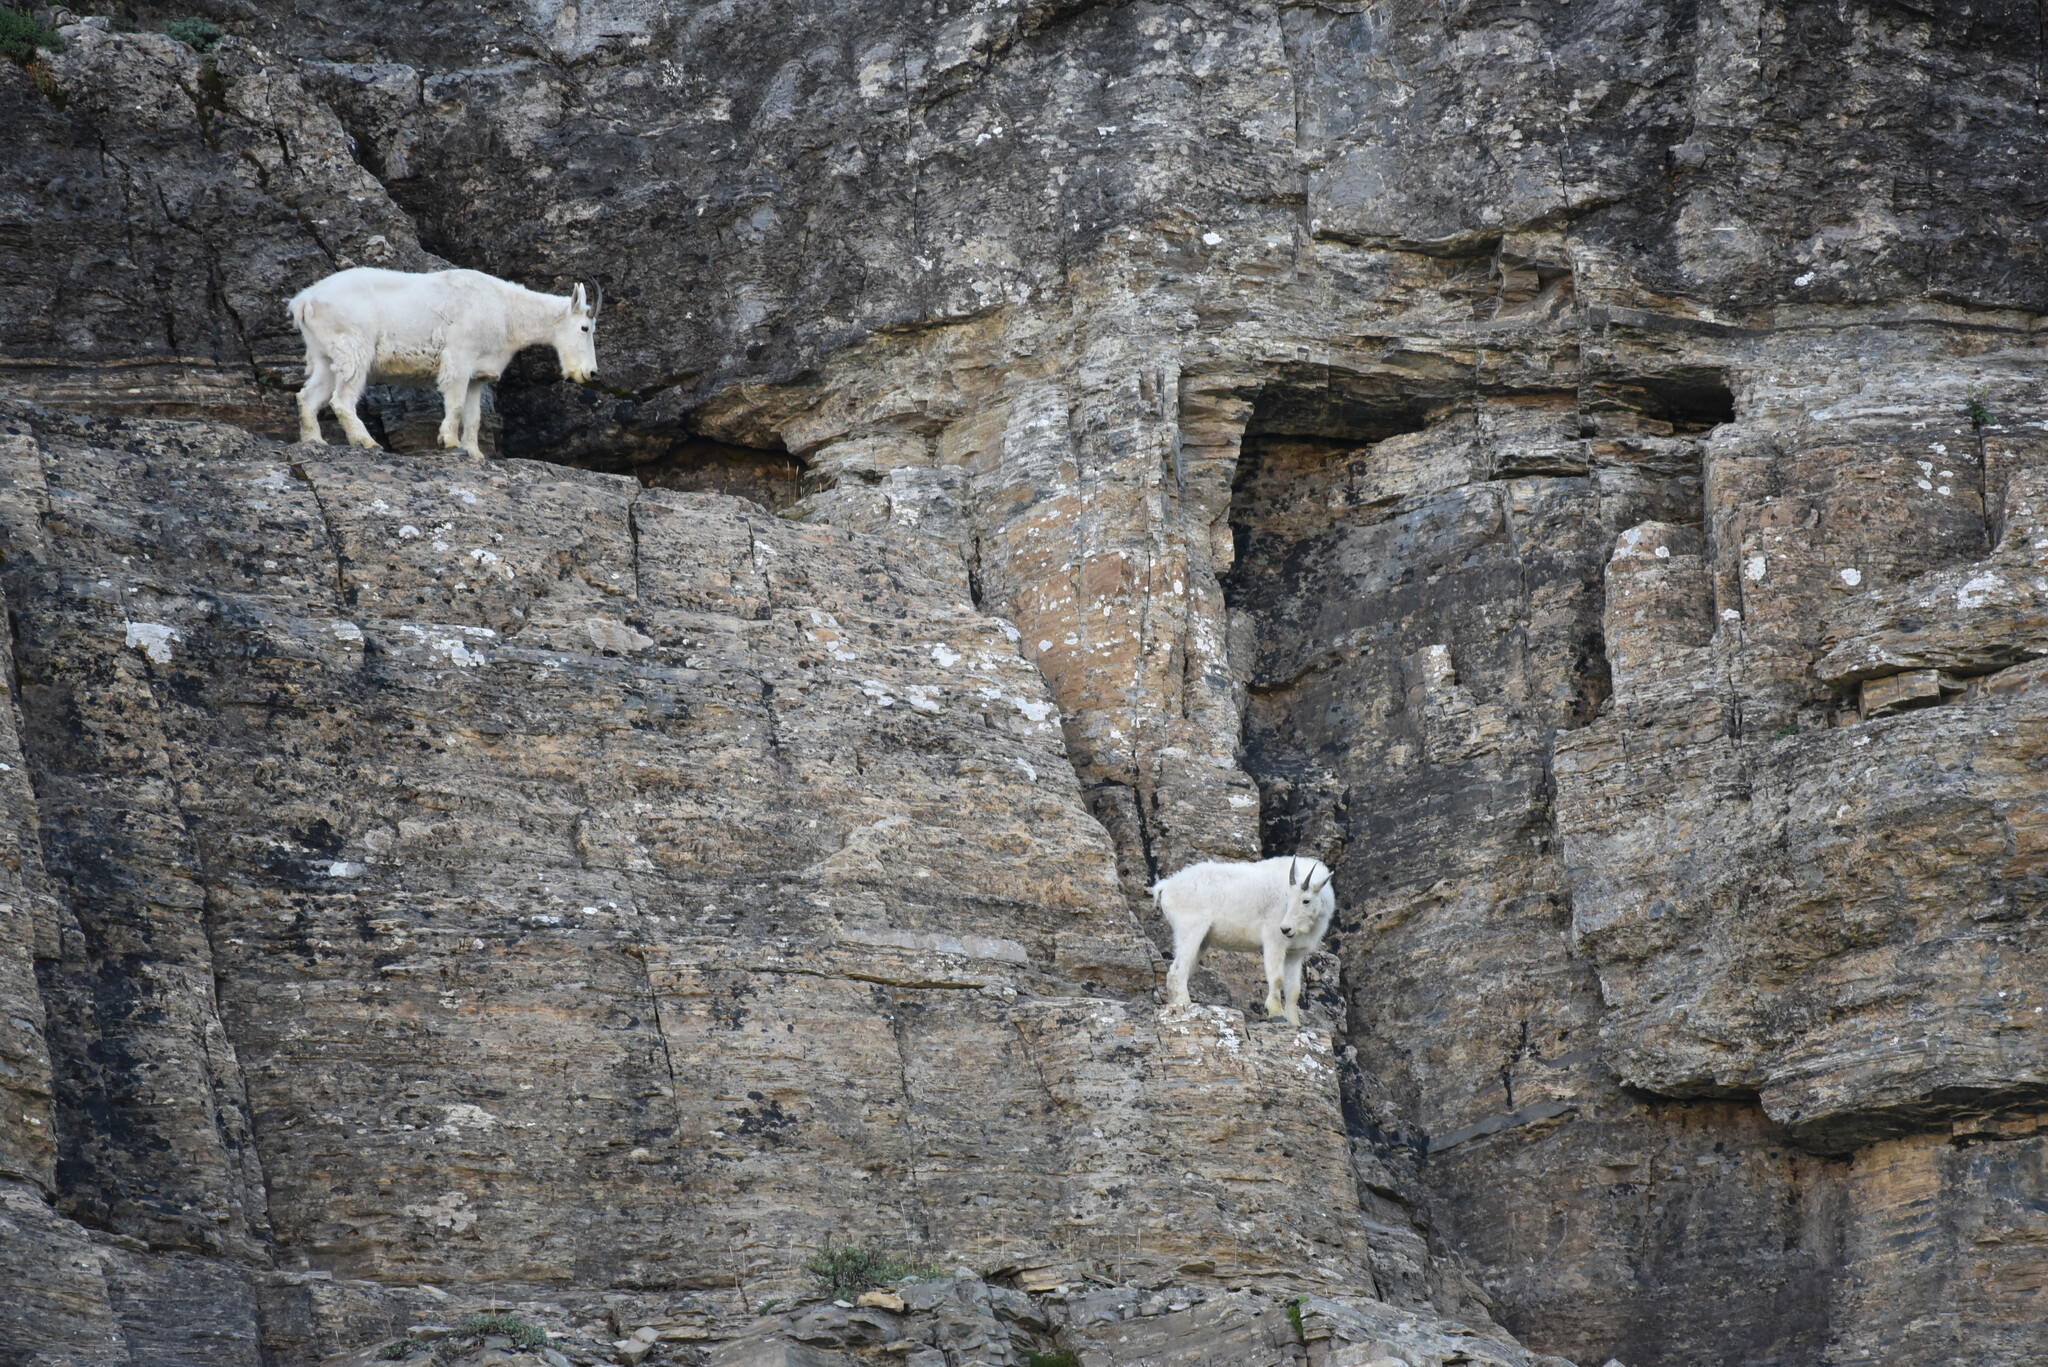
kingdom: Animalia
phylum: Chordata
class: Mammalia
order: Artiodactyla
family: Bovidae
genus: Oreamnos
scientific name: Oreamnos americanus
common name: Mountain goat
